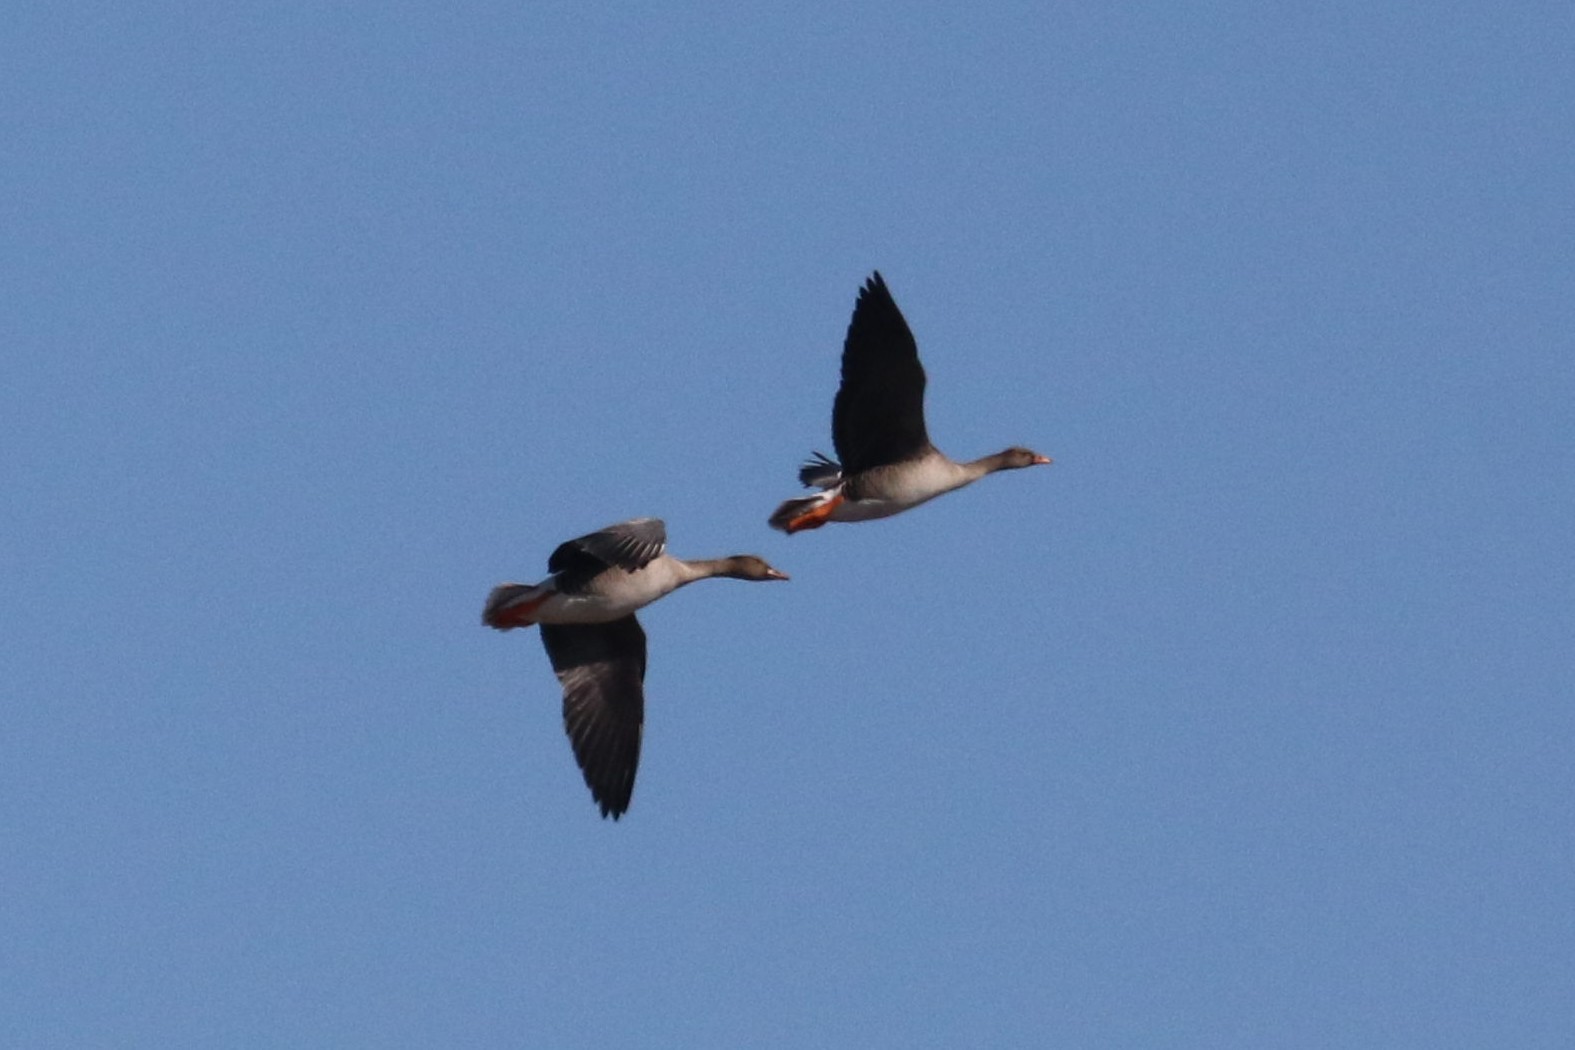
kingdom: Animalia
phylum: Chordata
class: Aves
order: Anseriformes
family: Anatidae
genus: Anser
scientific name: Anser fabalis
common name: Bean goose
